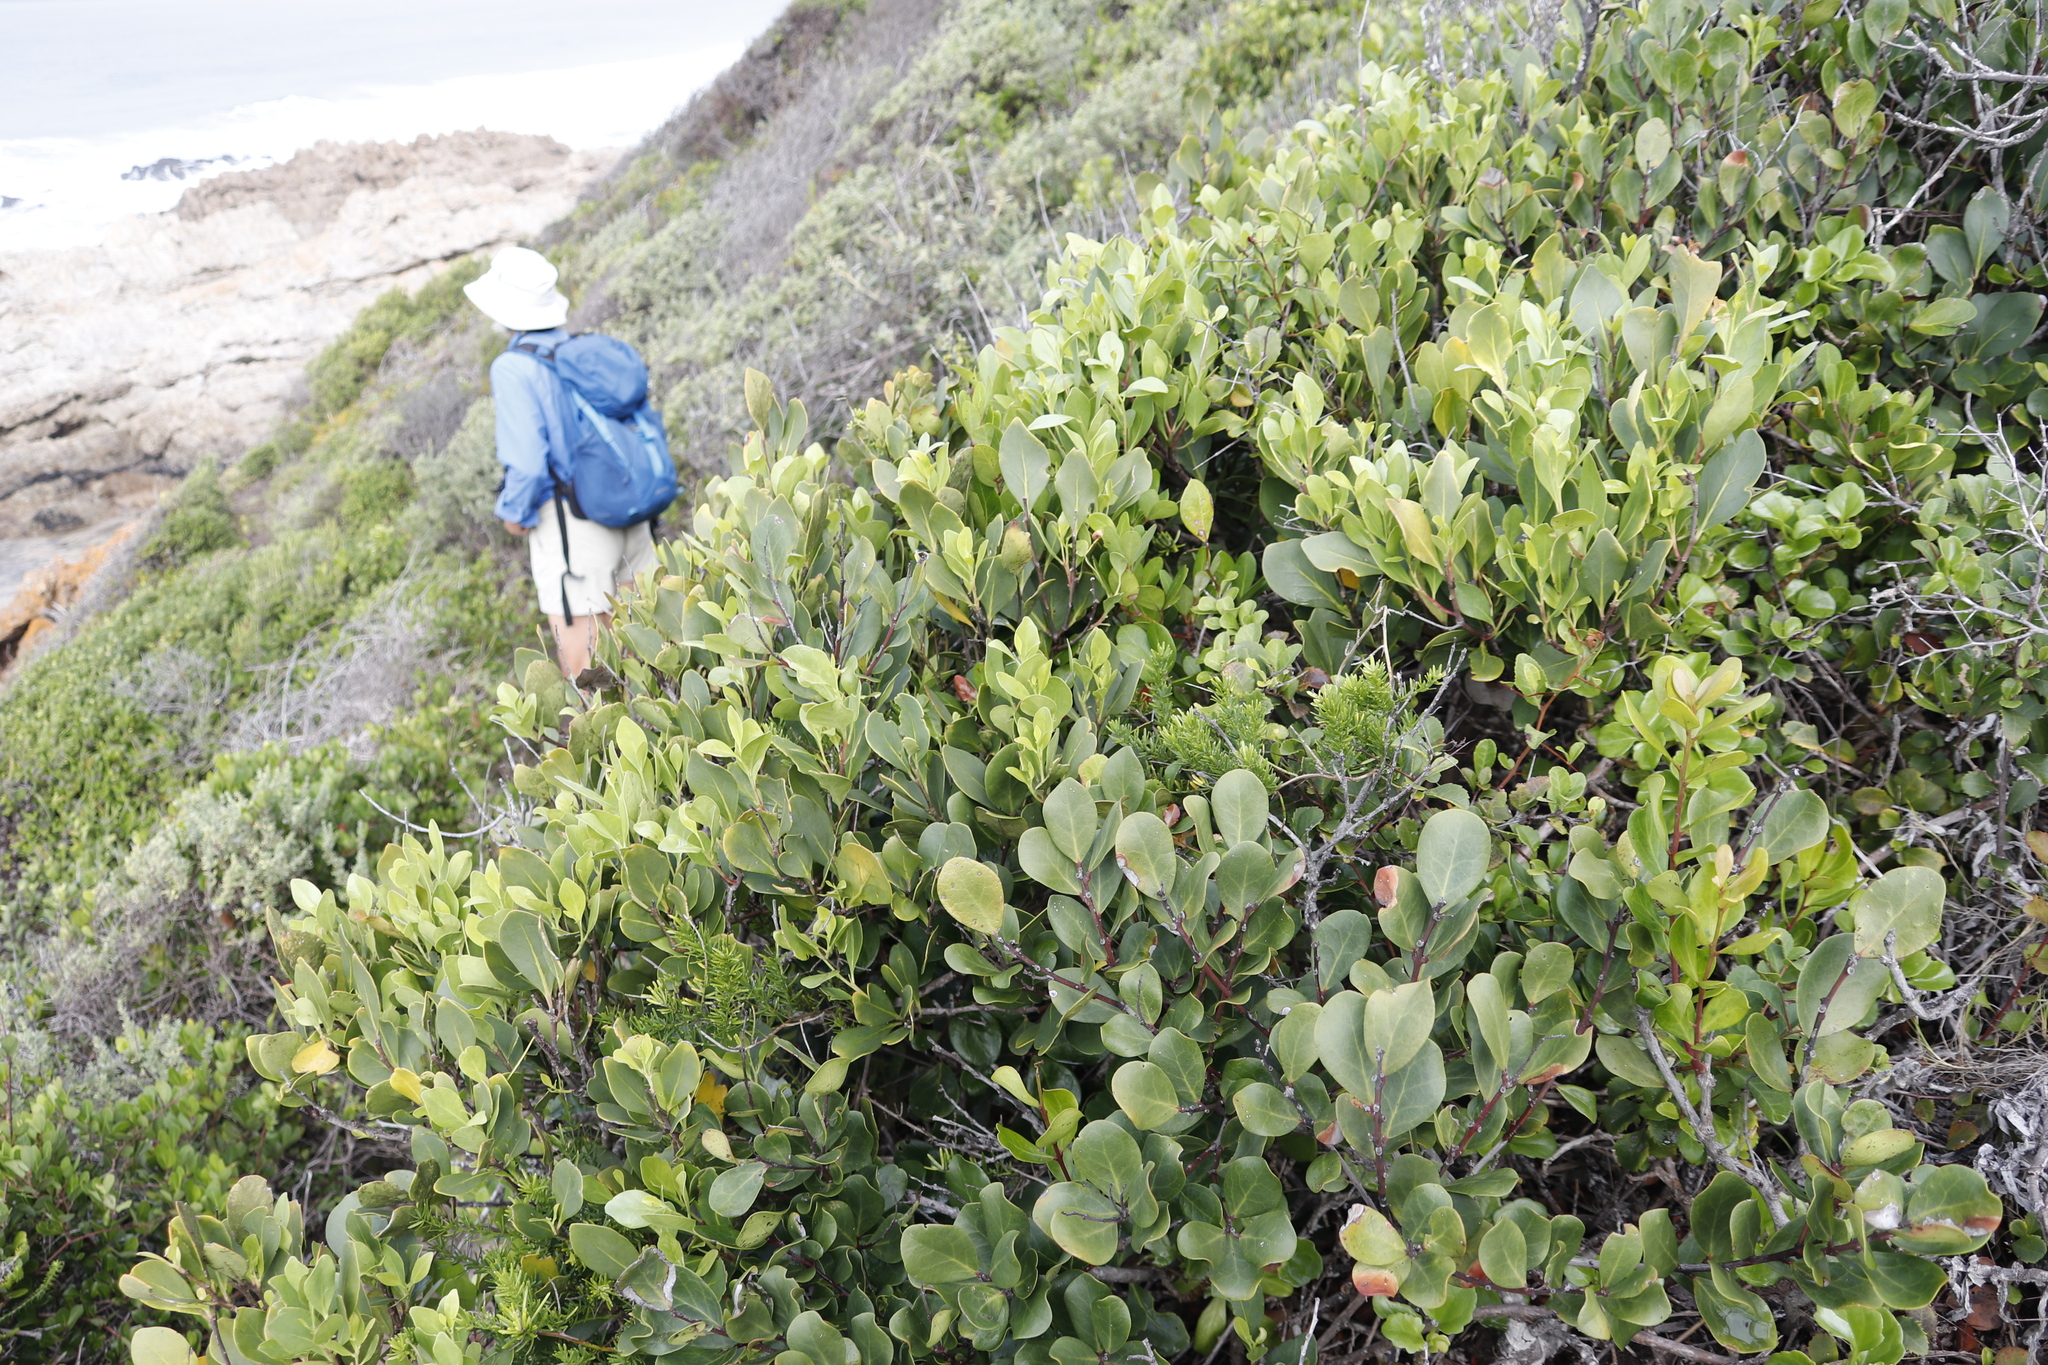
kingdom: Plantae
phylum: Tracheophyta
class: Magnoliopsida
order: Ericales
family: Ebenaceae
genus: Euclea
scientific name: Euclea racemosa
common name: Dune guarri
